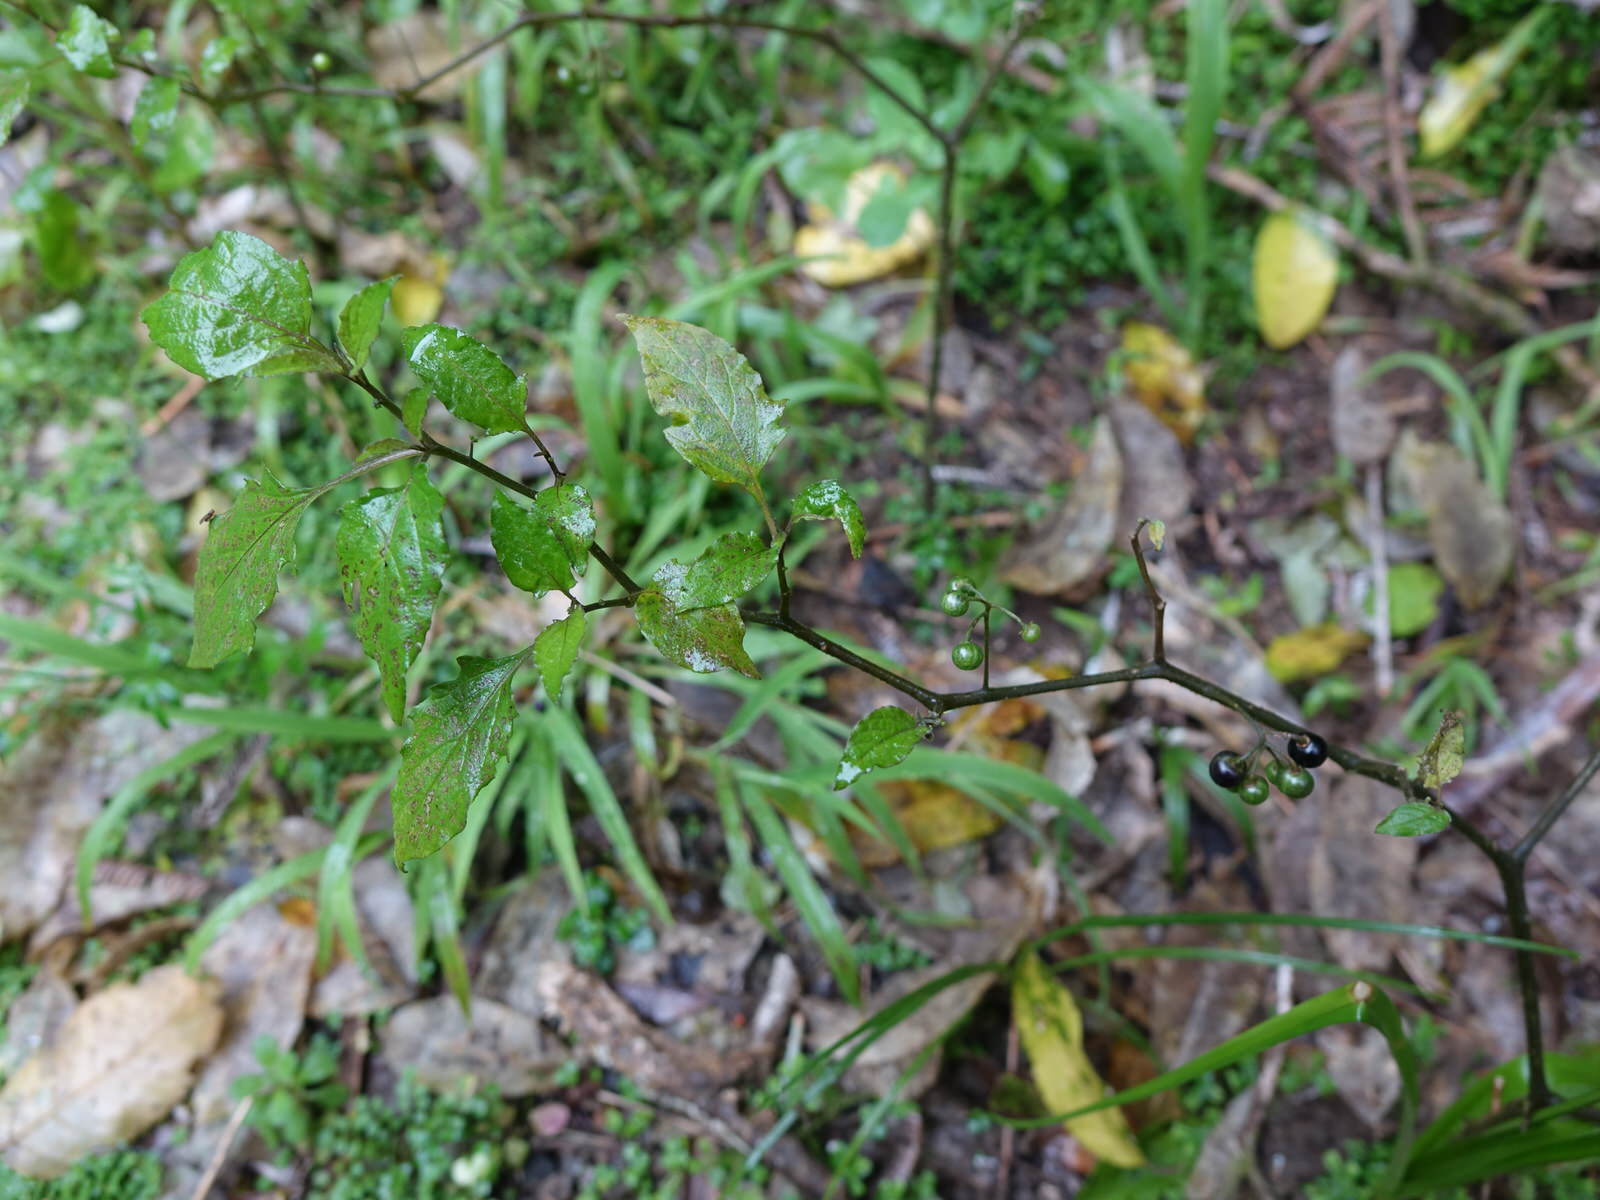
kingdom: Plantae
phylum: Tracheophyta
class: Magnoliopsida
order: Solanales
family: Solanaceae
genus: Solanum
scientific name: Solanum nigrum
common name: Black nightshade
